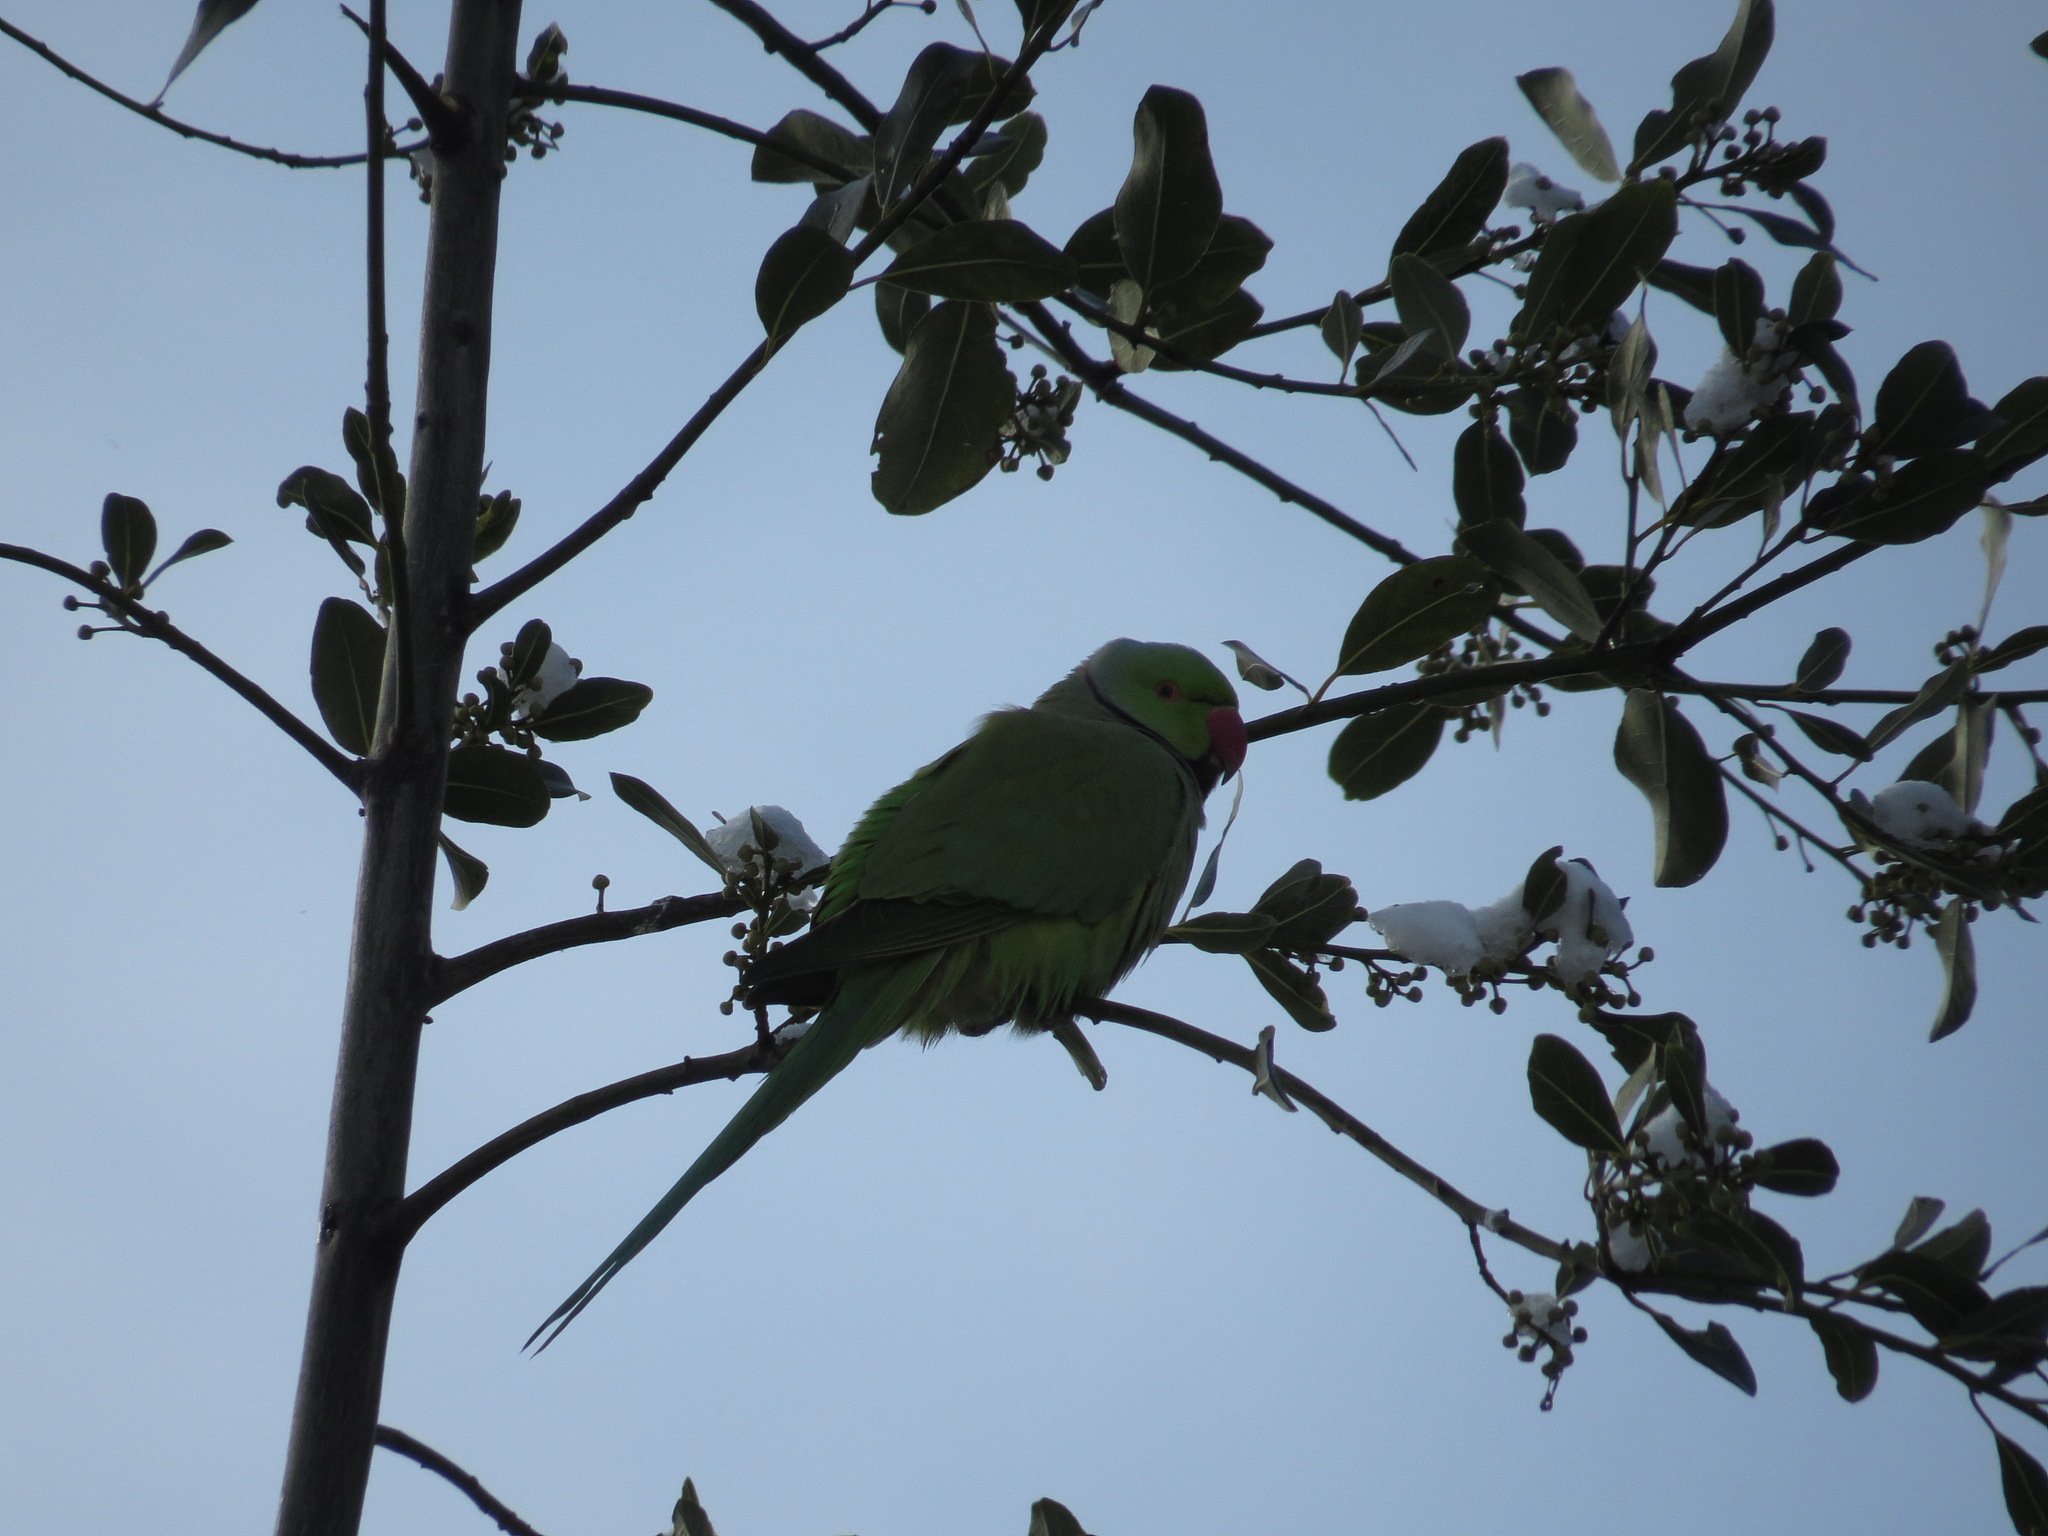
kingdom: Animalia
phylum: Chordata
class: Aves
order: Psittaciformes
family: Psittacidae
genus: Psittacula
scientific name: Psittacula krameri
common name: Rose-ringed parakeet
